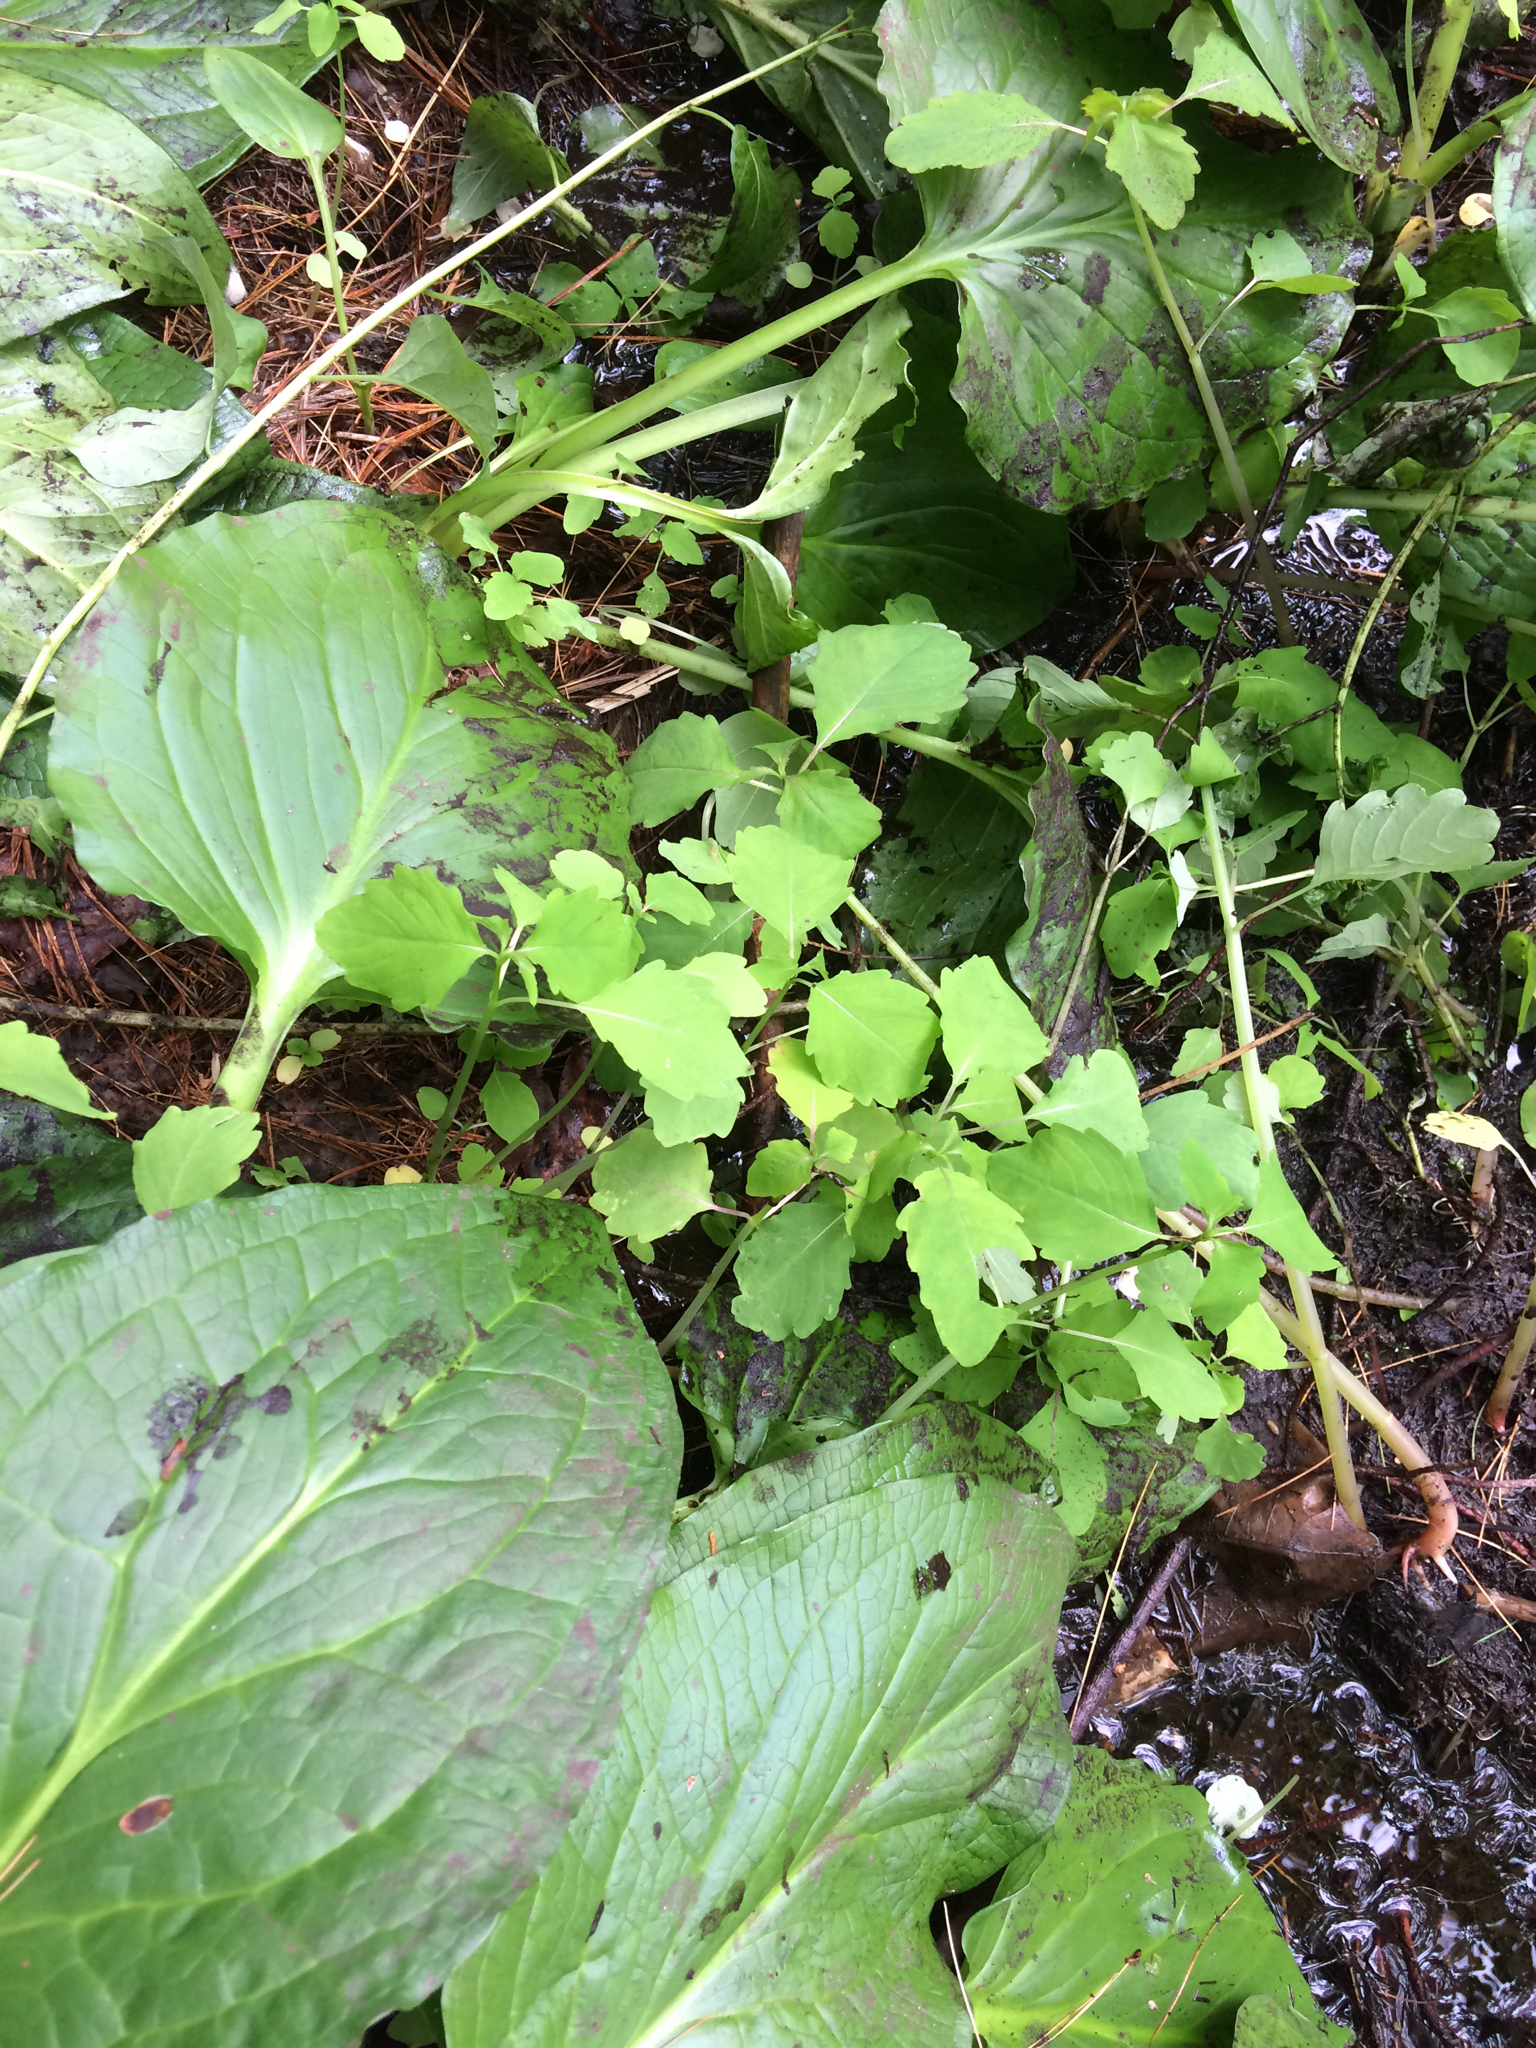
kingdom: Plantae
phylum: Tracheophyta
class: Magnoliopsida
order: Ericales
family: Balsaminaceae
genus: Impatiens
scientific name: Impatiens capensis
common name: Orange balsam
